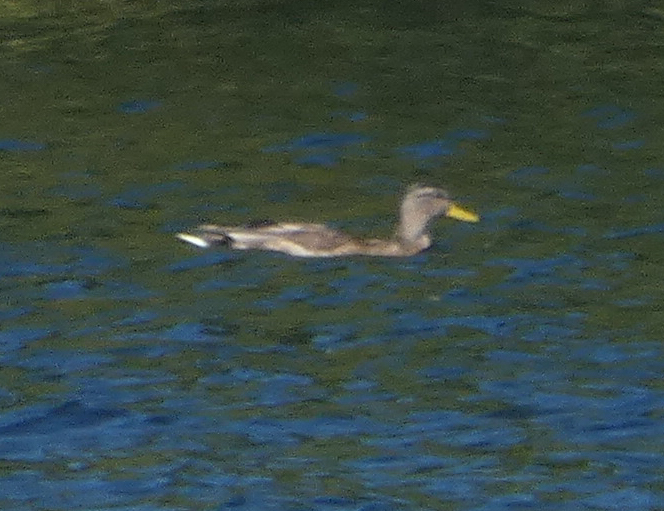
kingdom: Animalia
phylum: Chordata
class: Aves
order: Anseriformes
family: Anatidae
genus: Anas
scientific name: Anas platyrhynchos
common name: Mallard
